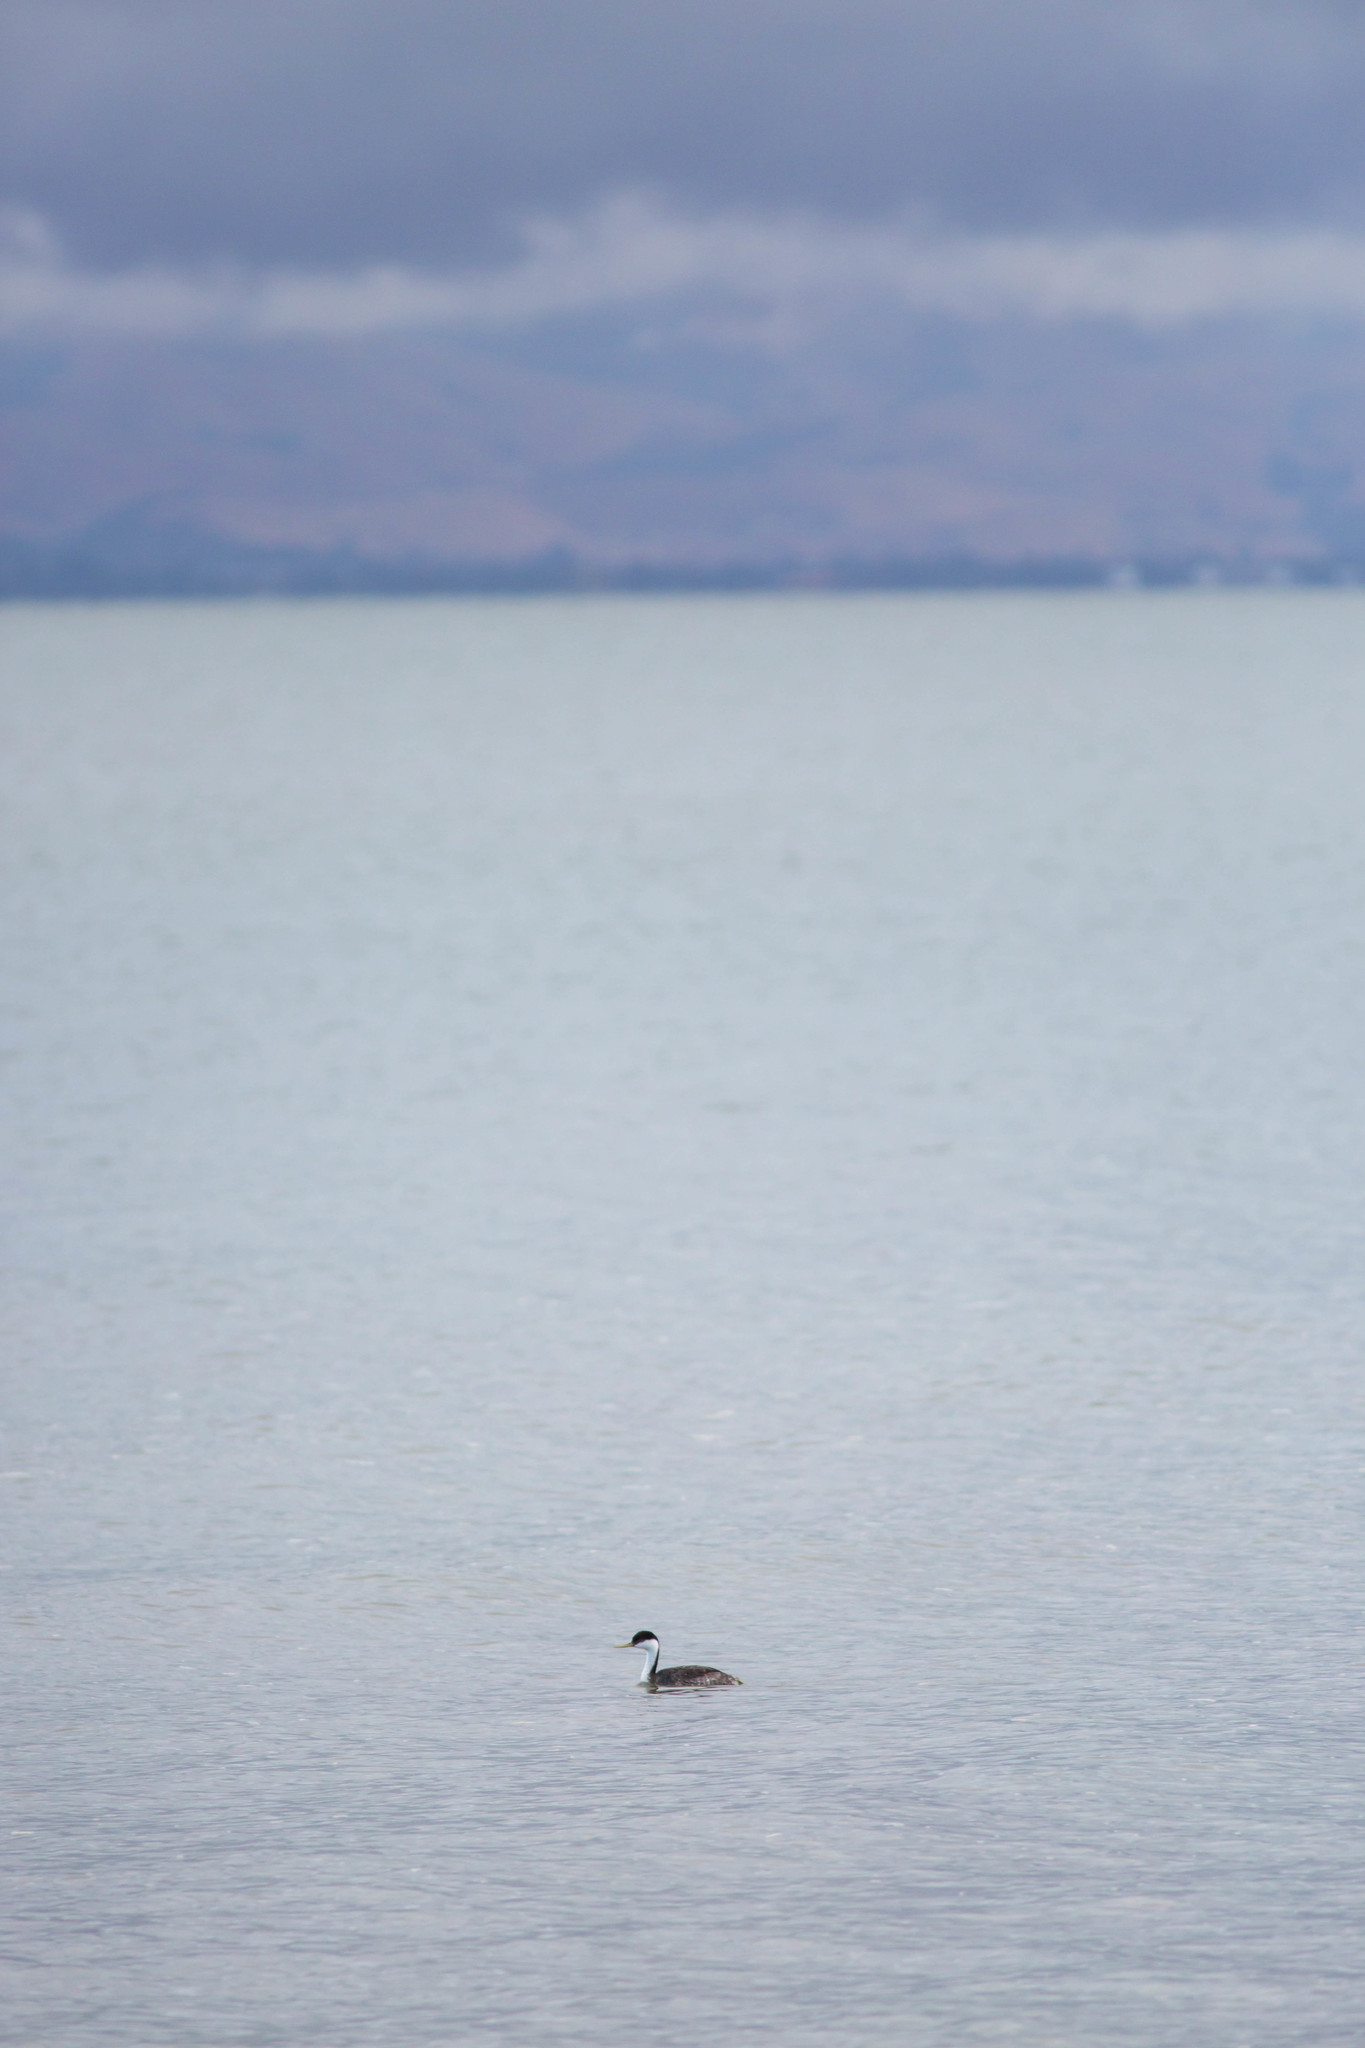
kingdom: Animalia
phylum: Chordata
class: Aves
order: Podicipediformes
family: Podicipedidae
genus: Aechmophorus
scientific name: Aechmophorus occidentalis
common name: Western grebe
